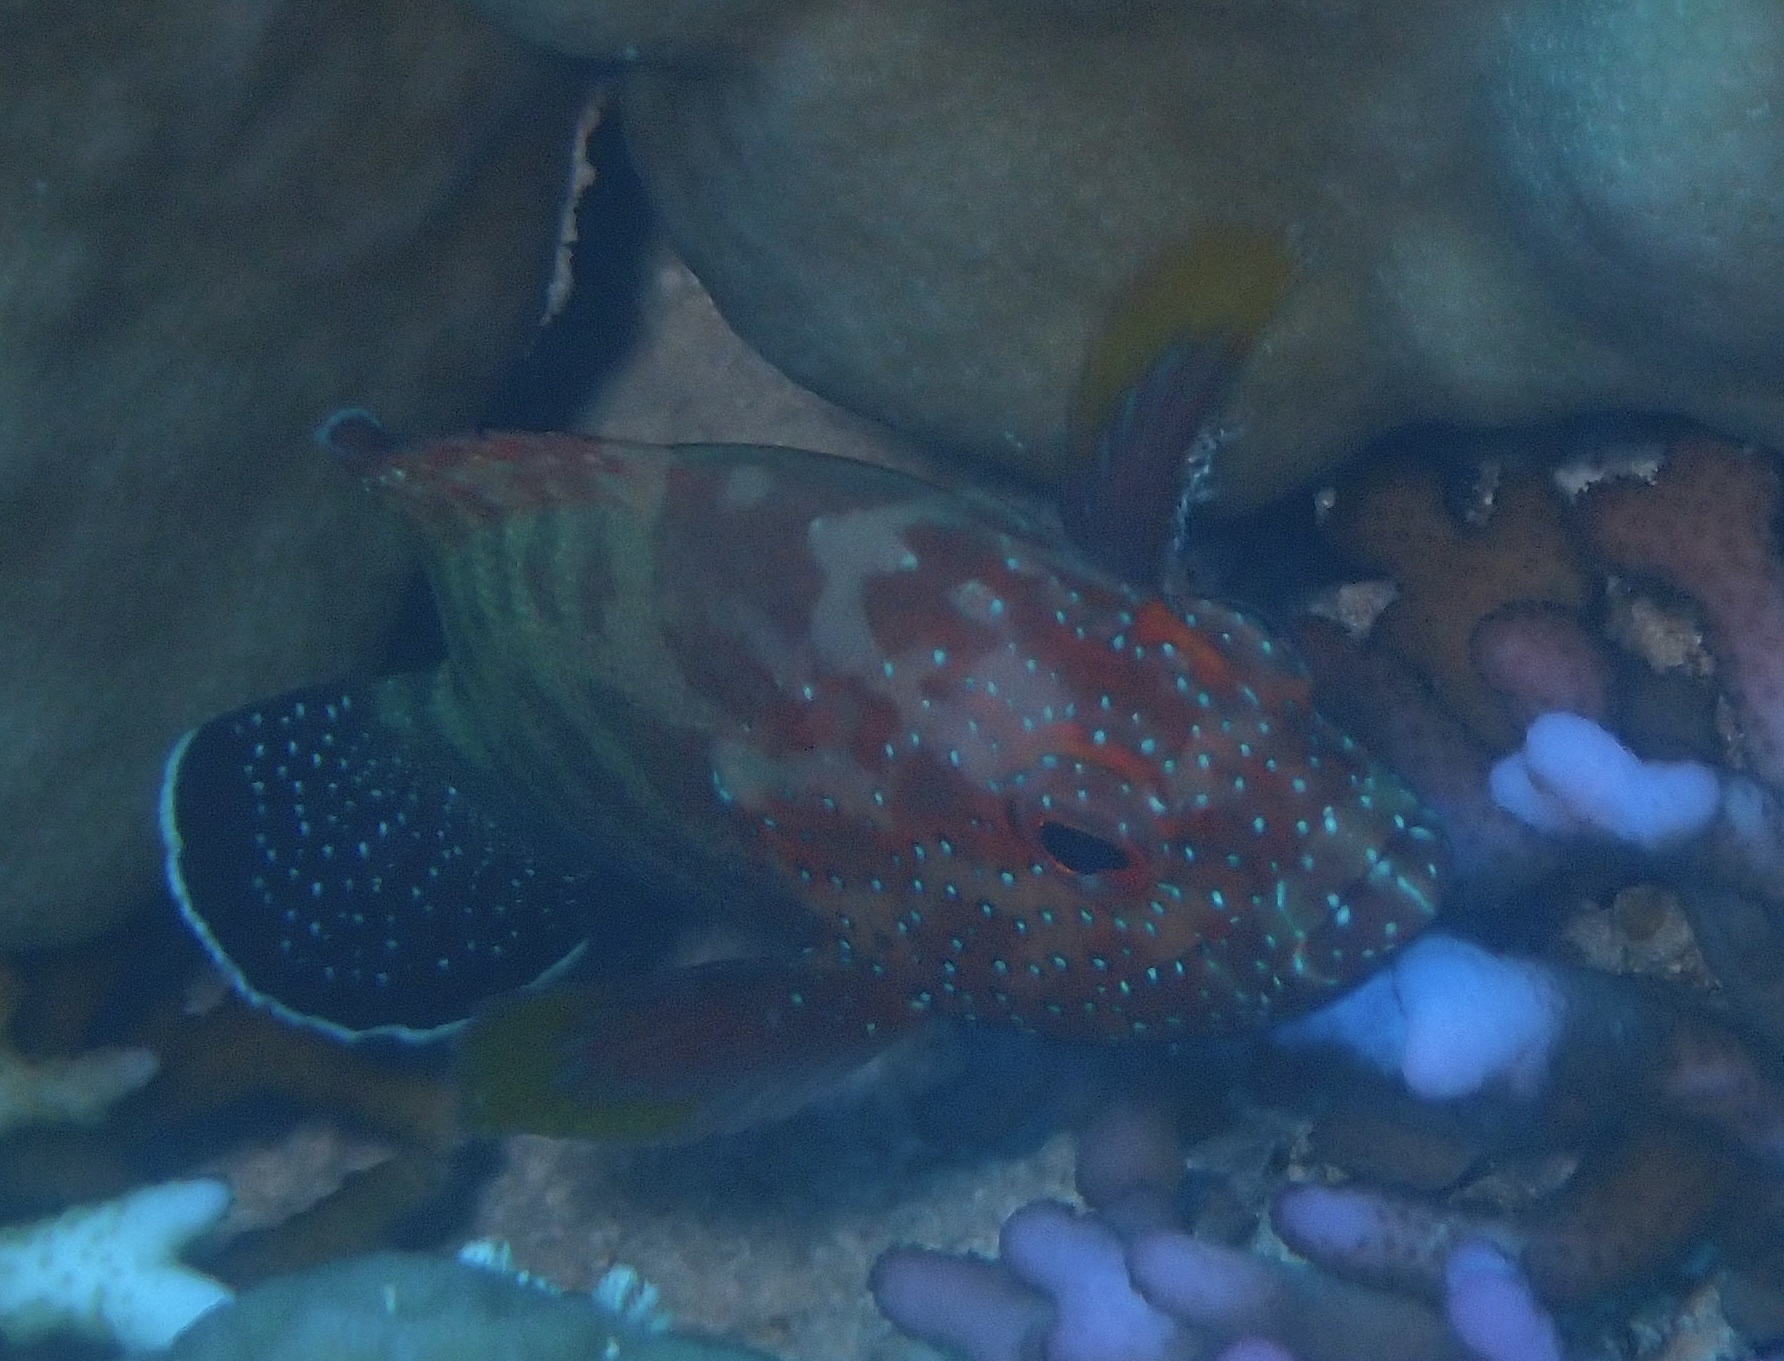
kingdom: Animalia
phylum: Chordata
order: Perciformes
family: Serranidae
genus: Cephalopholis
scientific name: Cephalopholis hemistiktos
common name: Halfspotted hind
